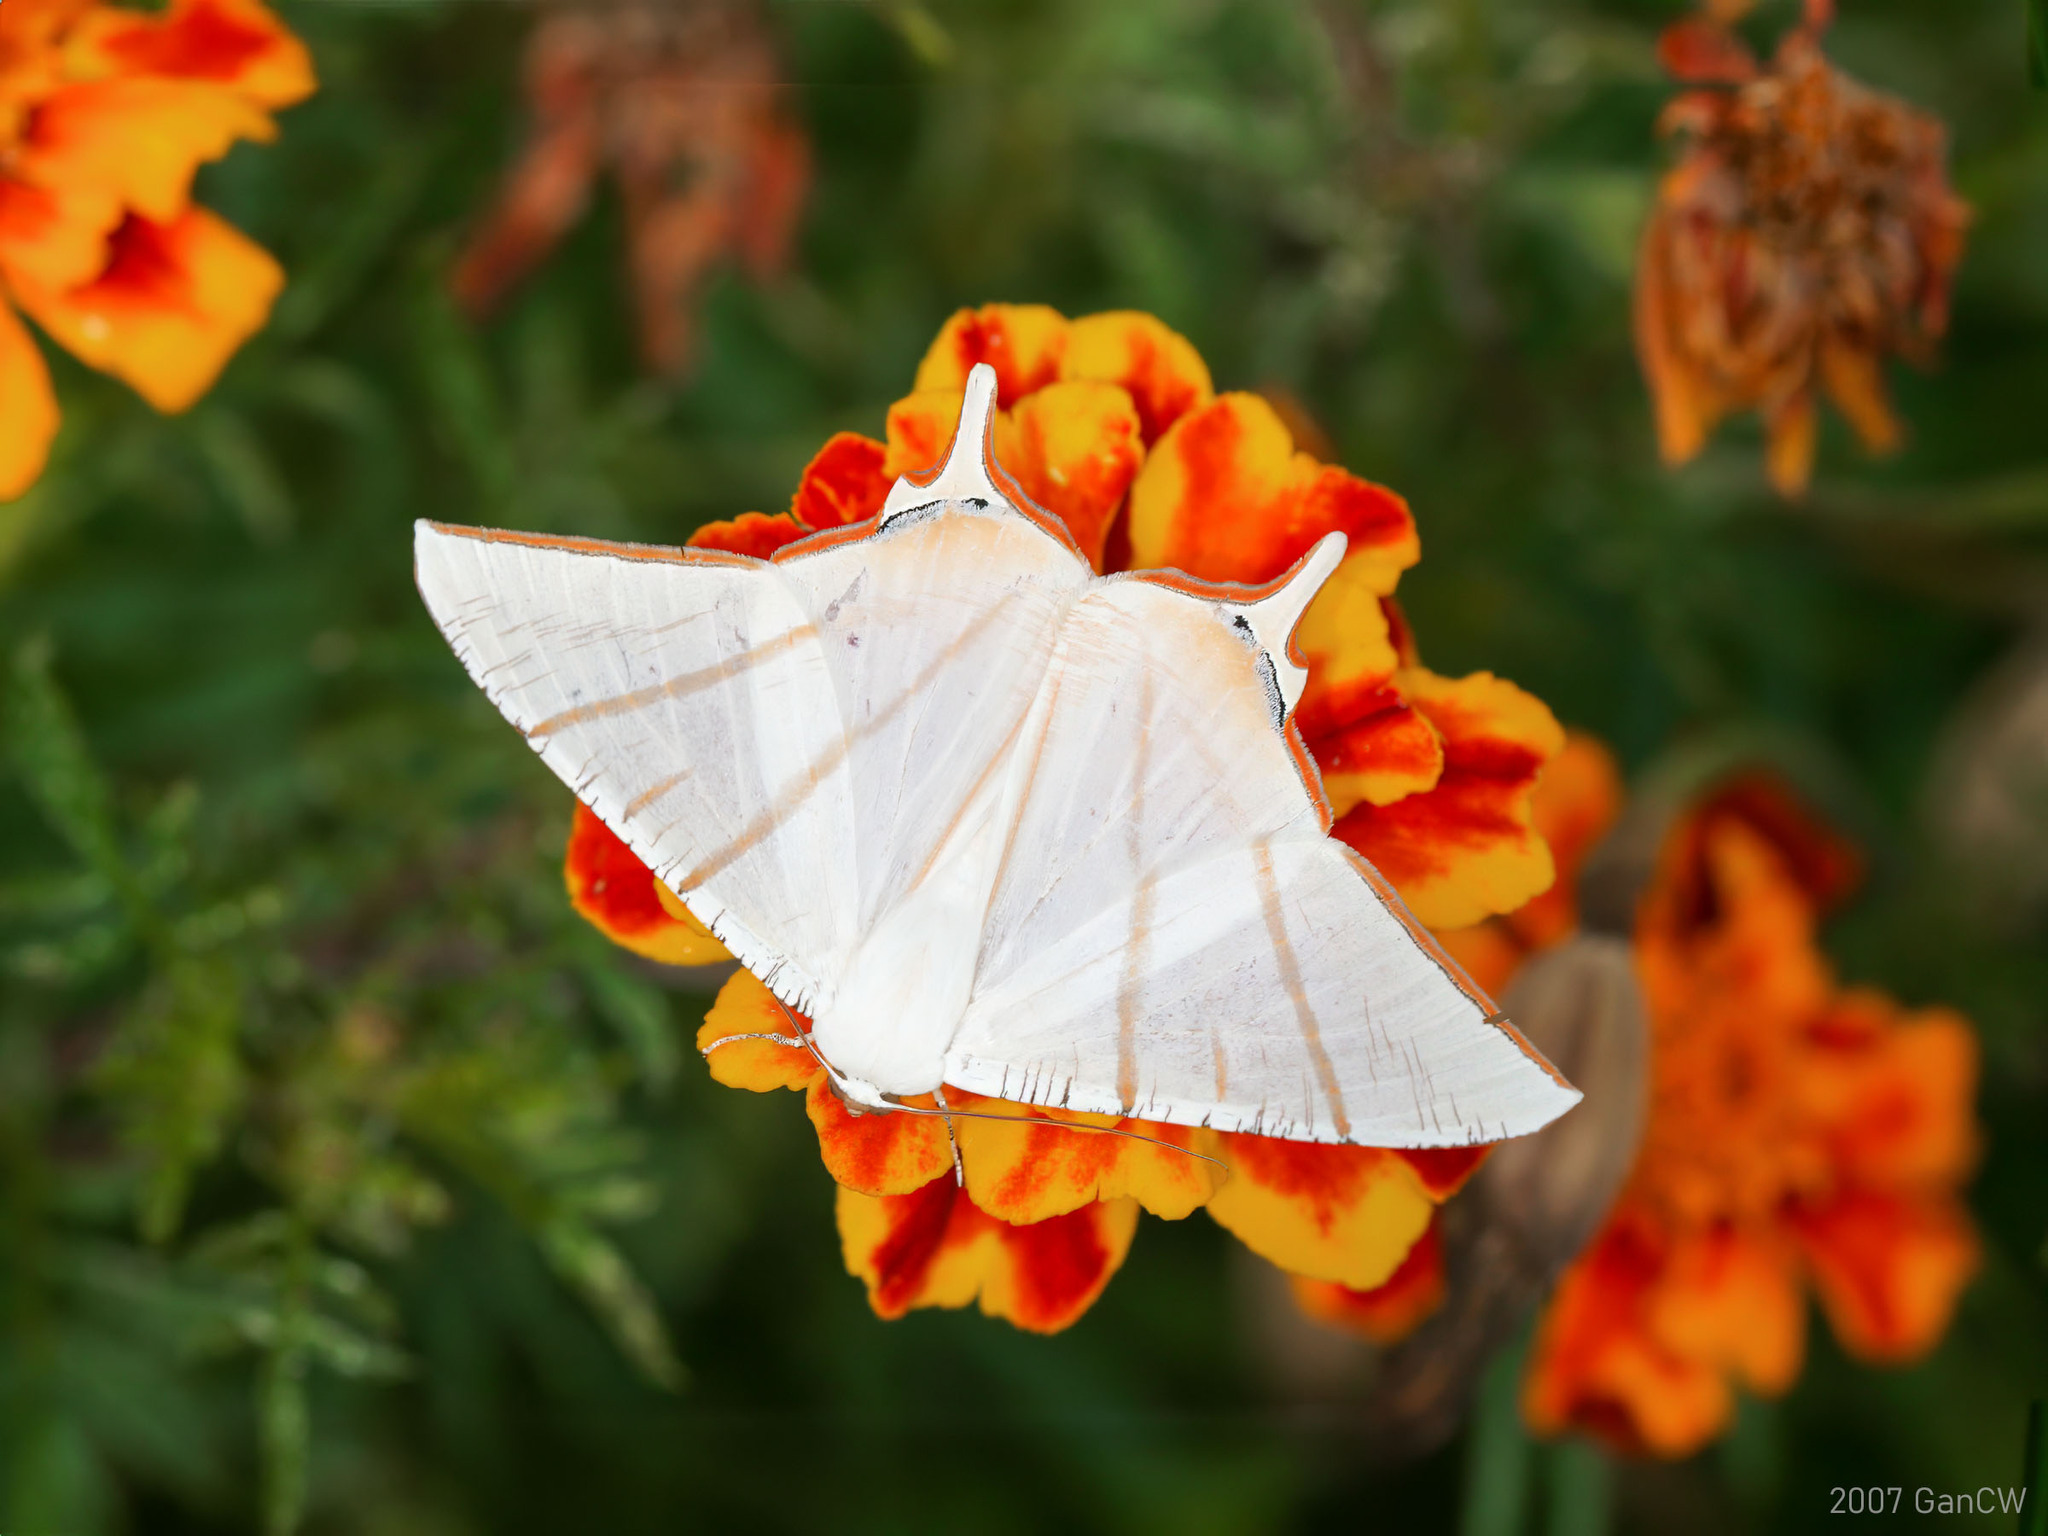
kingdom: Animalia
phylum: Arthropoda
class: Insecta
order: Lepidoptera
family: Geometridae
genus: Ourapteryx
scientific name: Ourapteryx claretta
